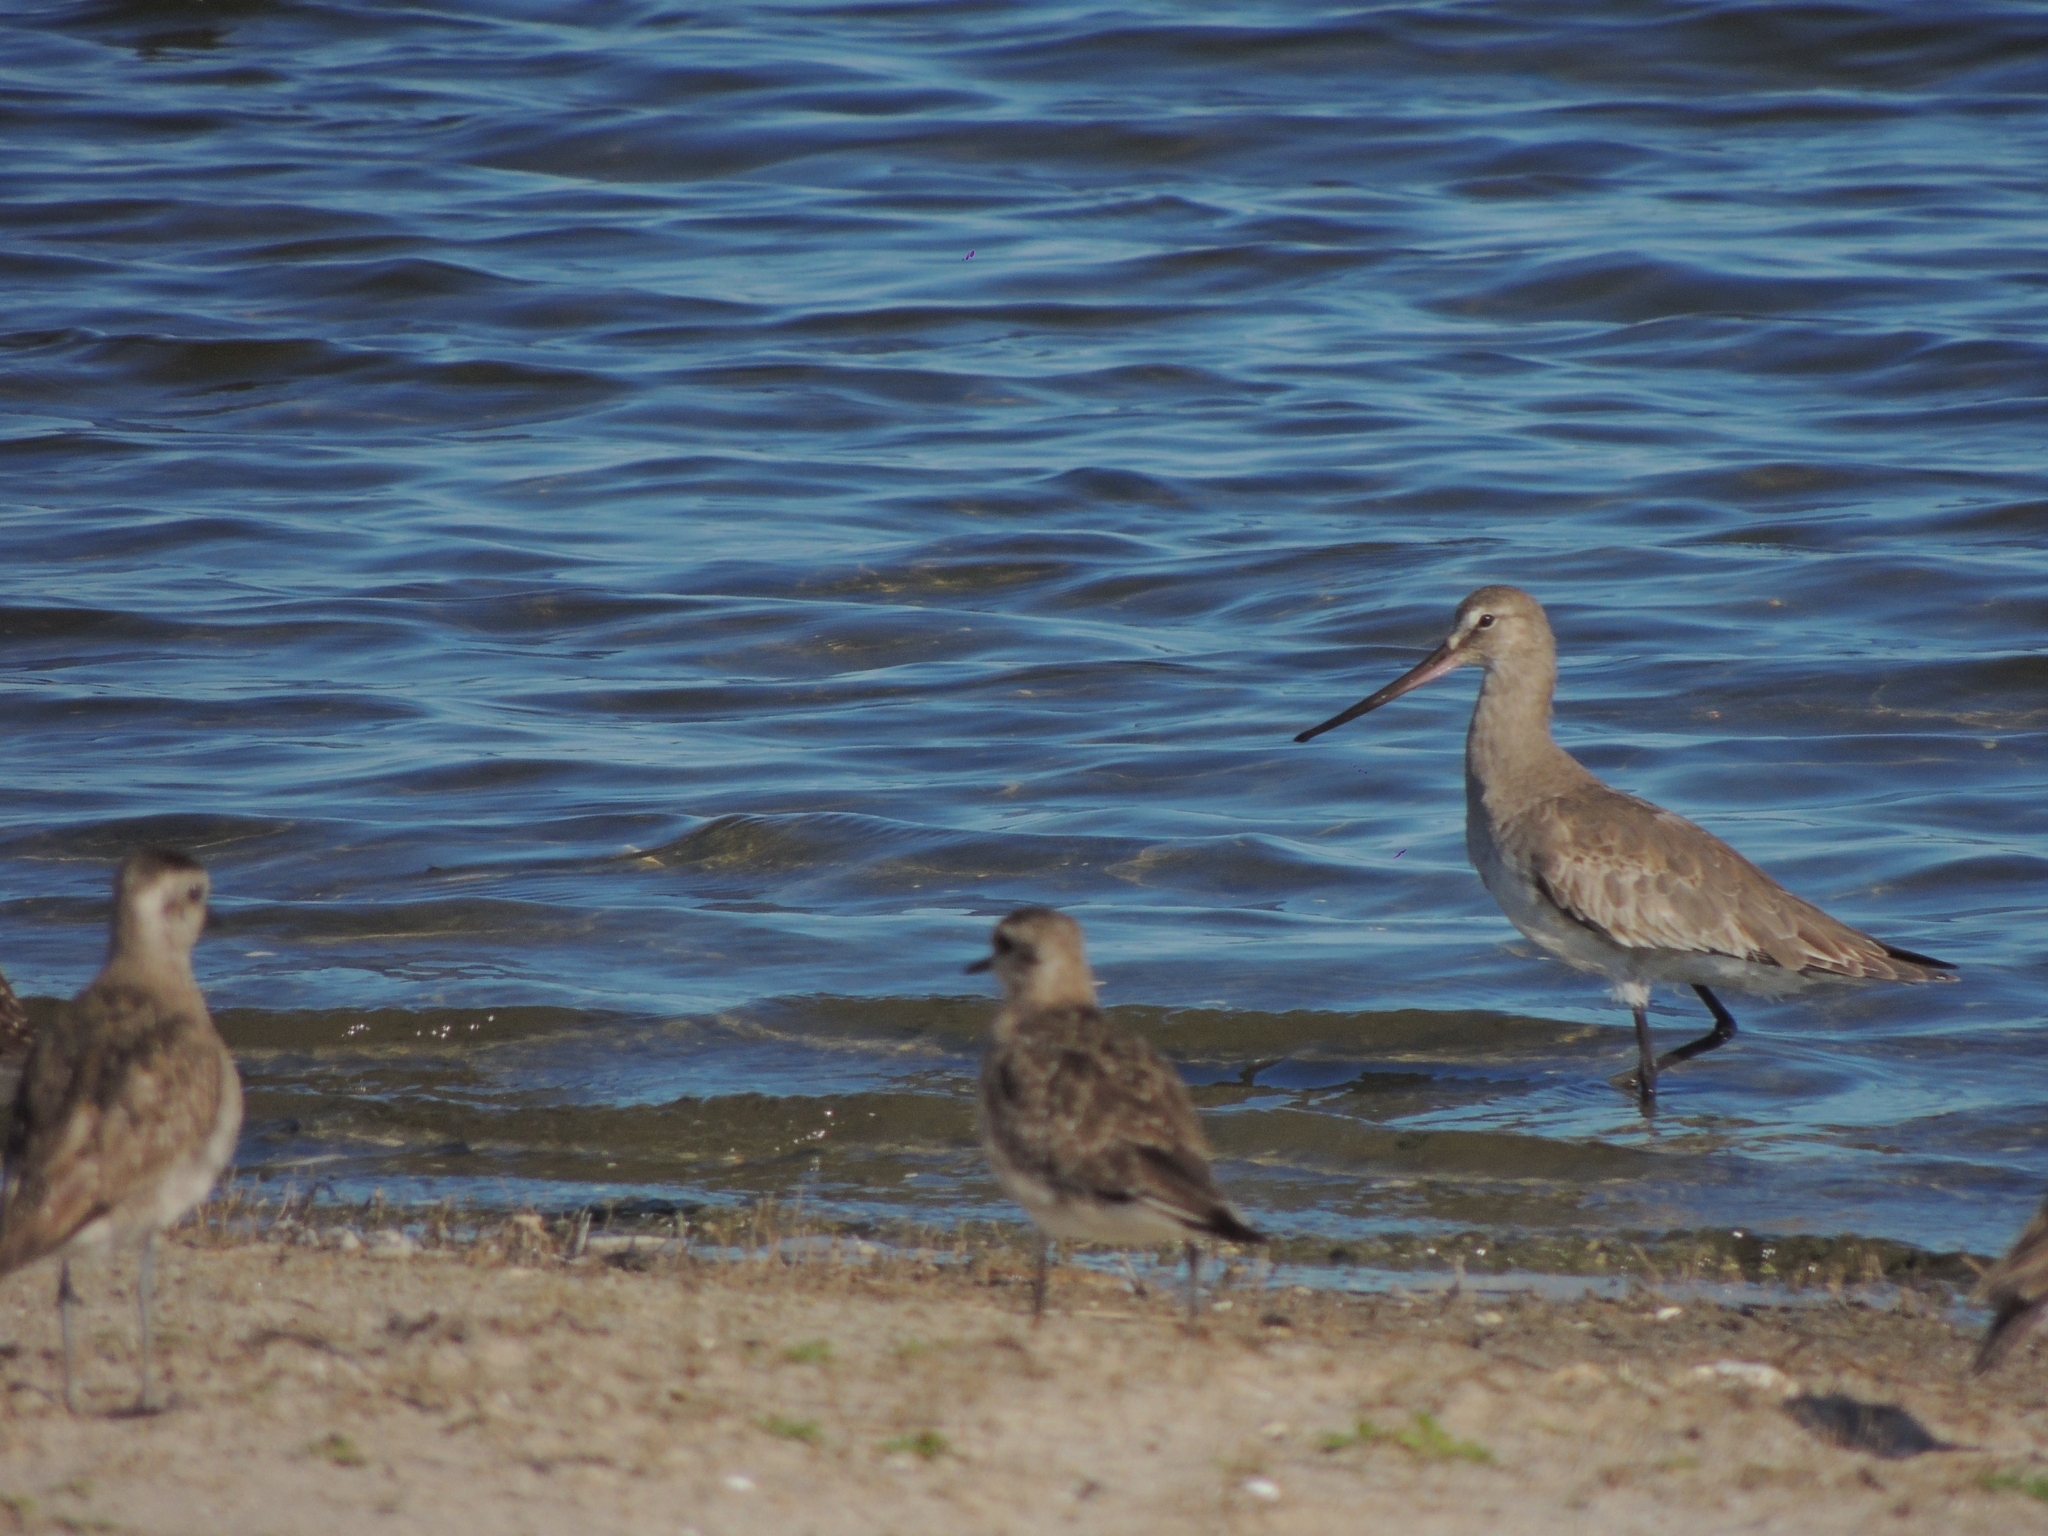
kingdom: Animalia
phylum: Chordata
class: Aves
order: Charadriiformes
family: Scolopacidae
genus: Limosa
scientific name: Limosa haemastica
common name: Hudsonian godwit
